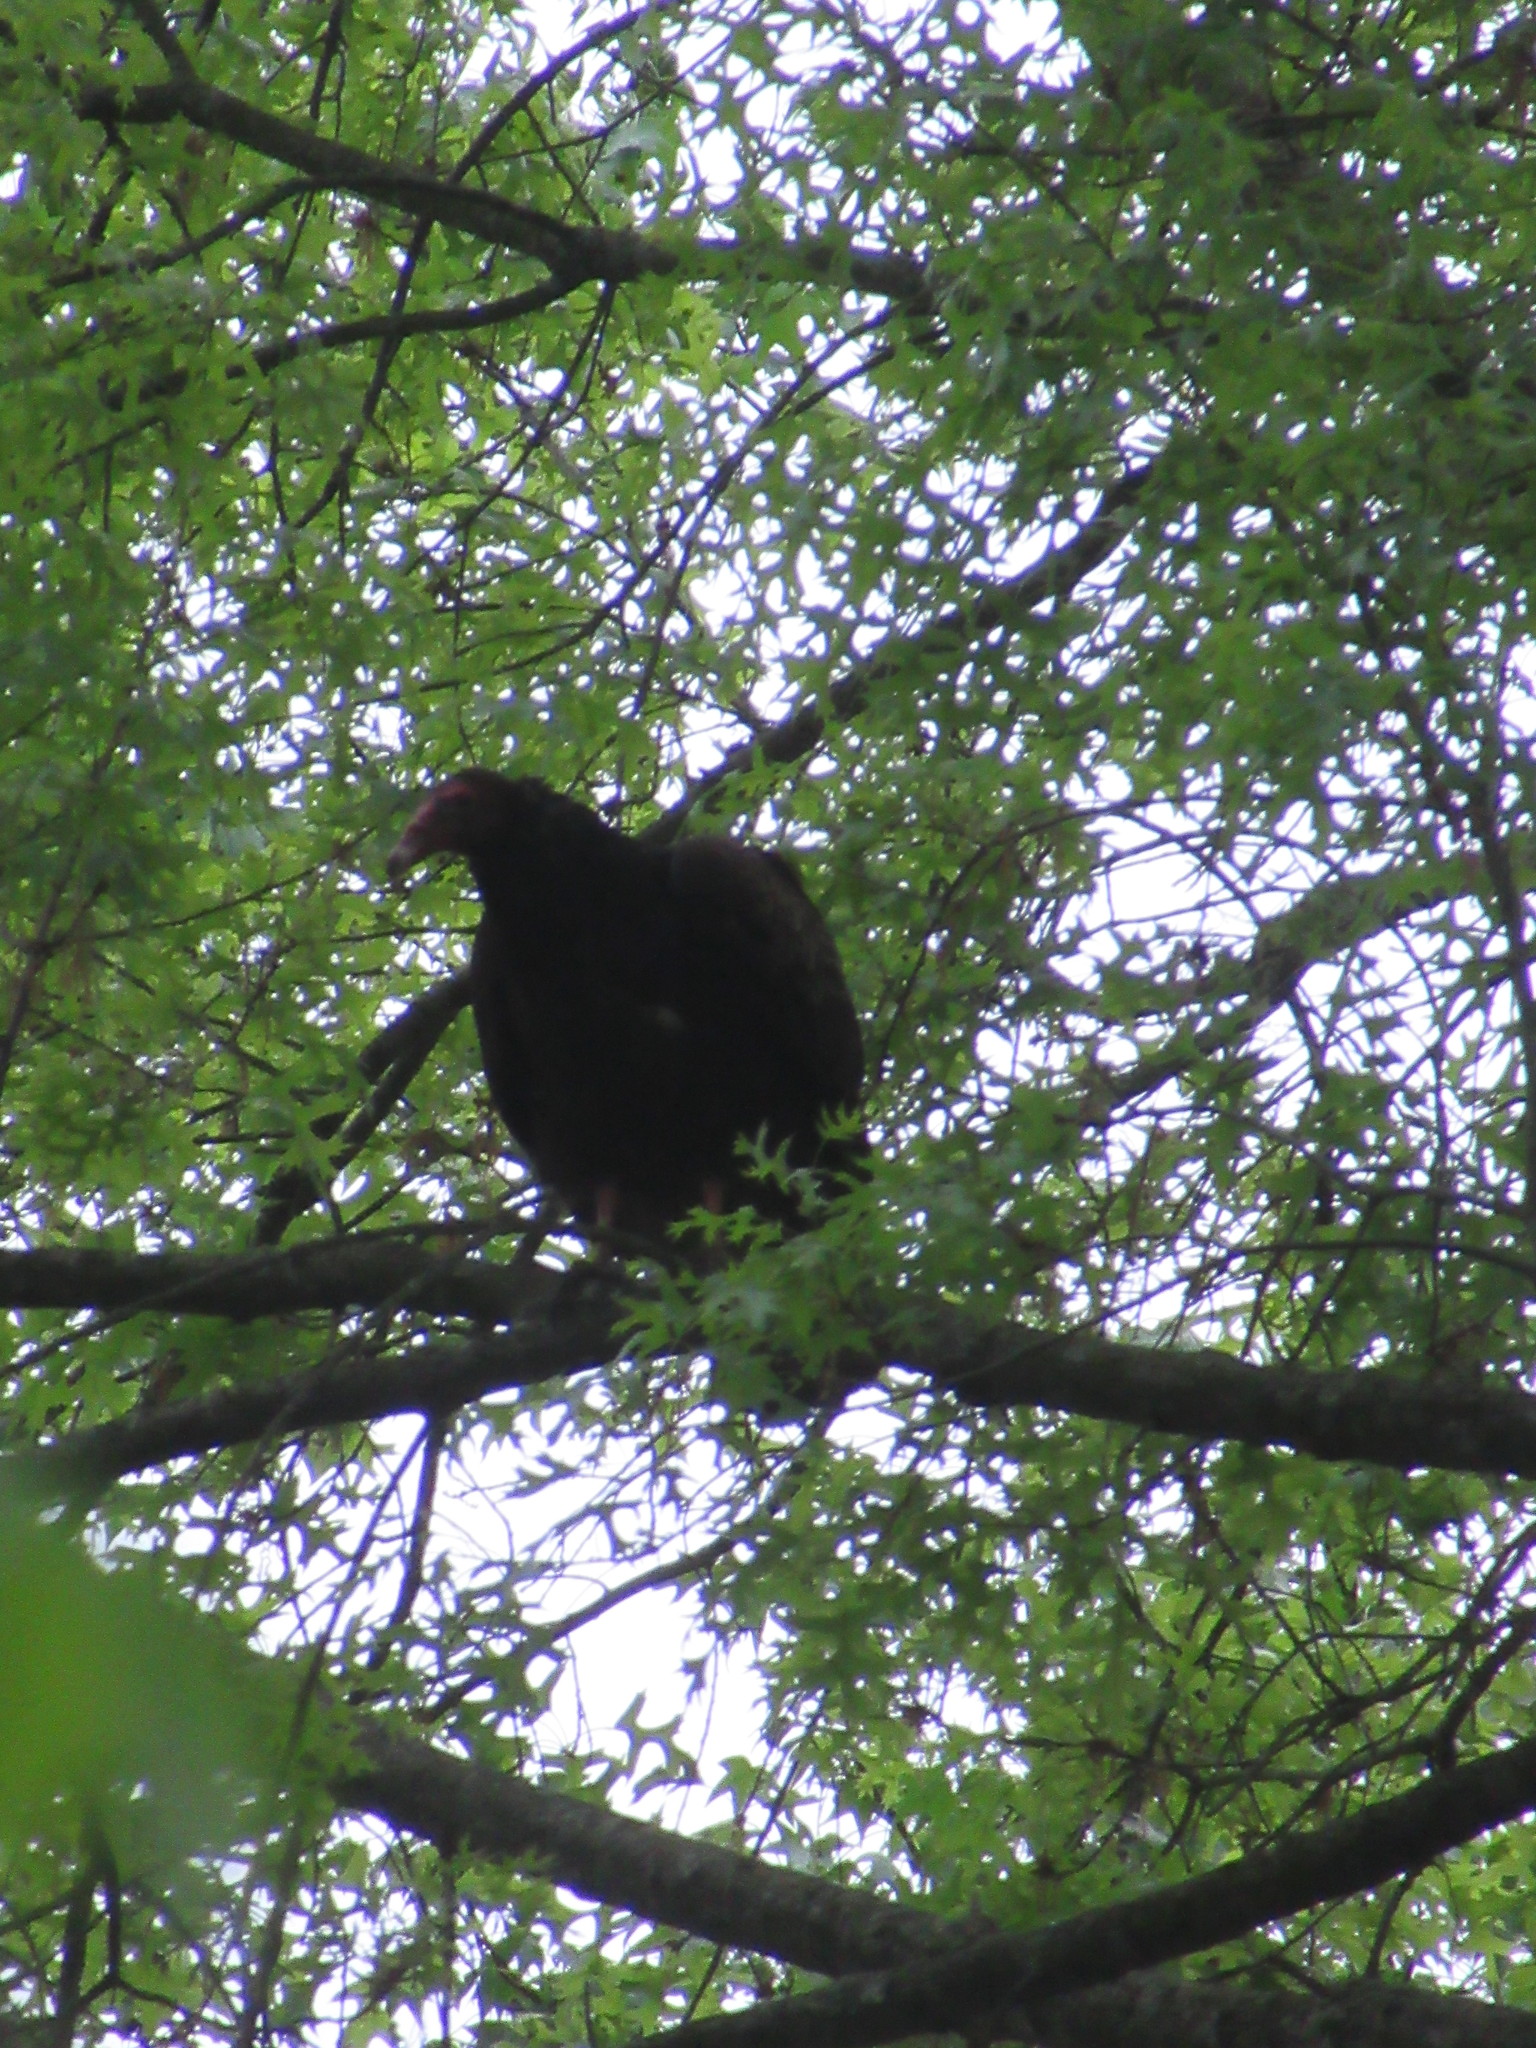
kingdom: Animalia
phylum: Chordata
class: Aves
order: Accipitriformes
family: Cathartidae
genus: Cathartes
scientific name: Cathartes aura
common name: Turkey vulture
